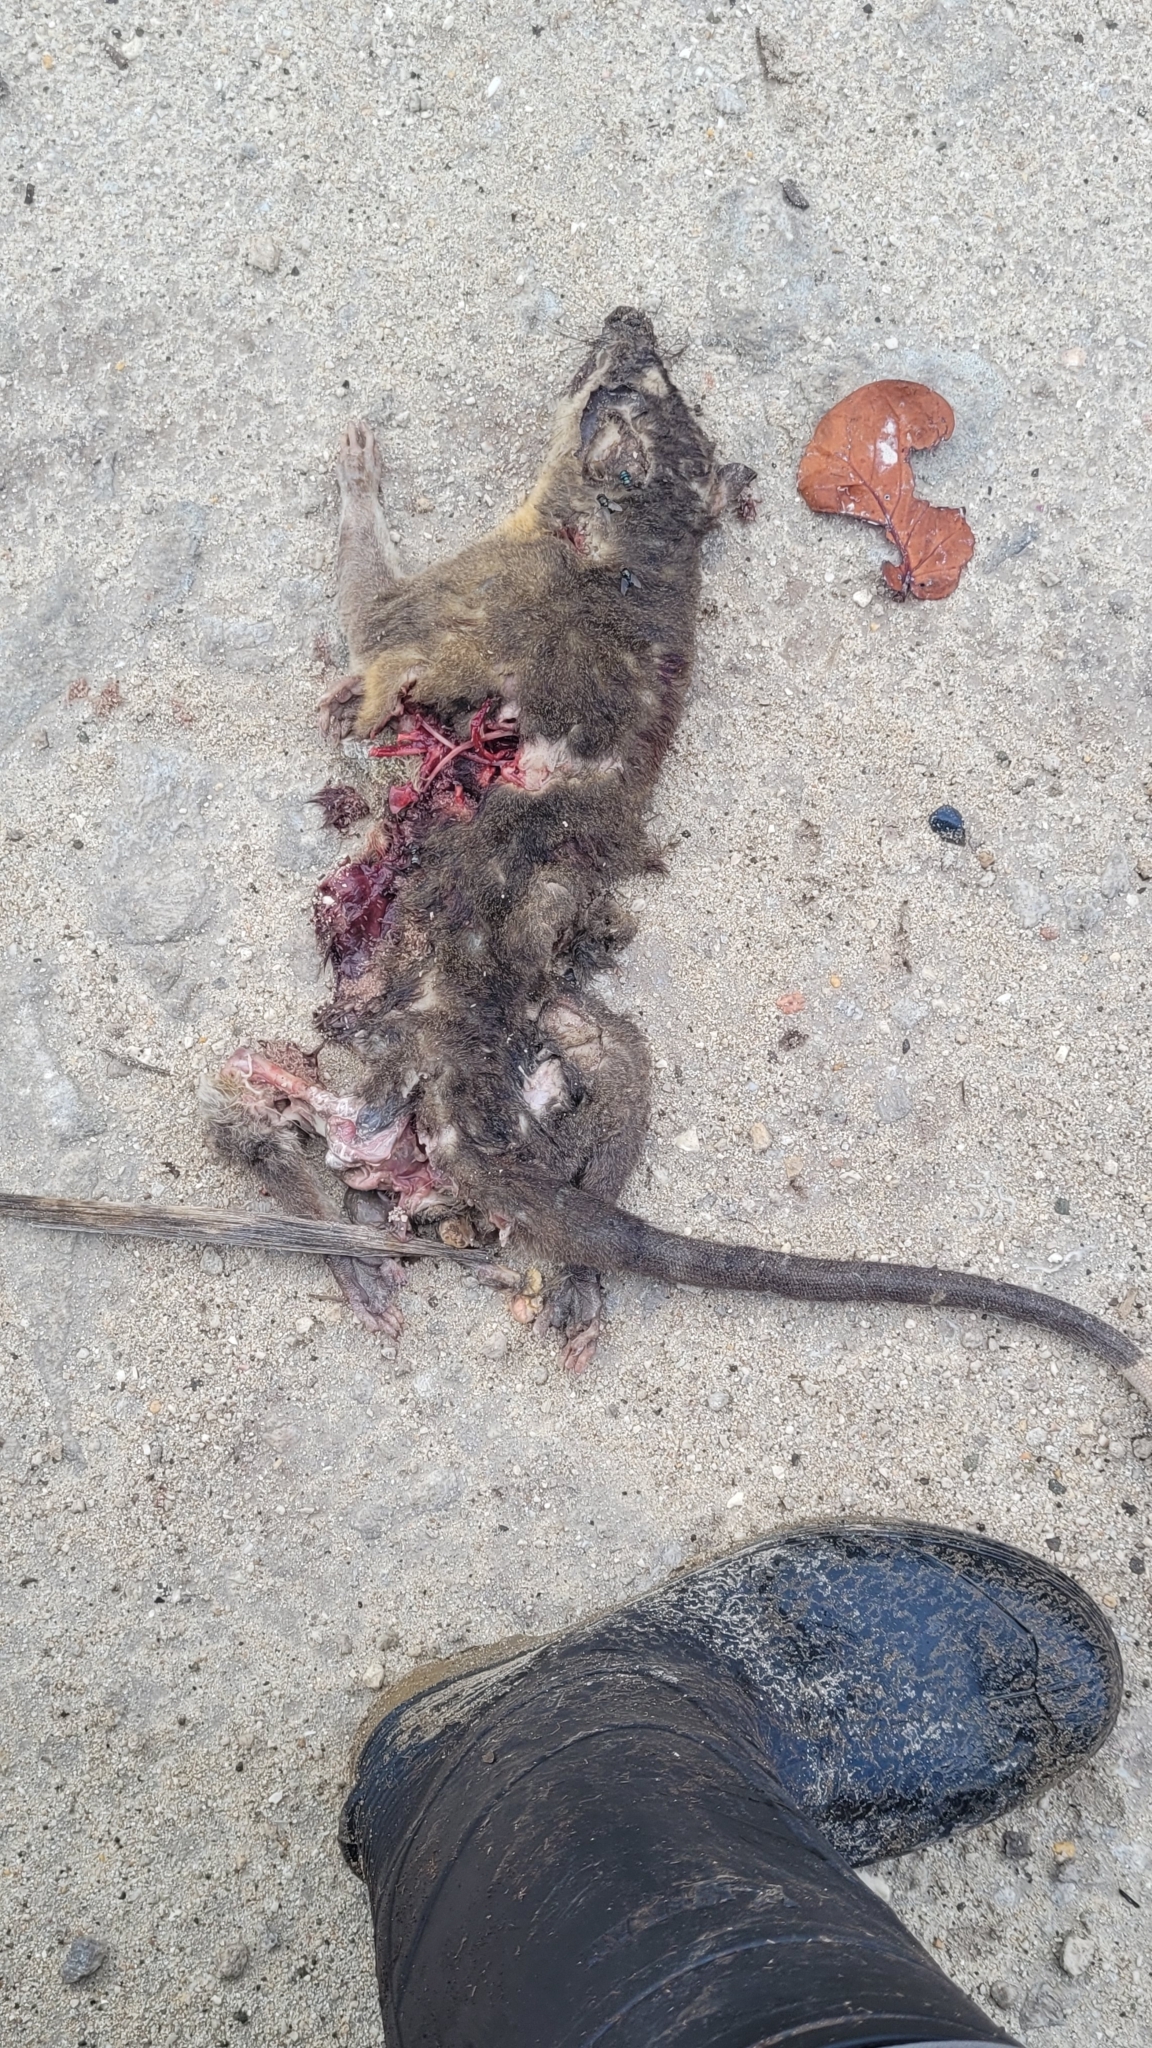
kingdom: Animalia
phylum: Chordata
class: Mammalia
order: Didelphimorphia
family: Didelphidae
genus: Philander
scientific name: Philander
